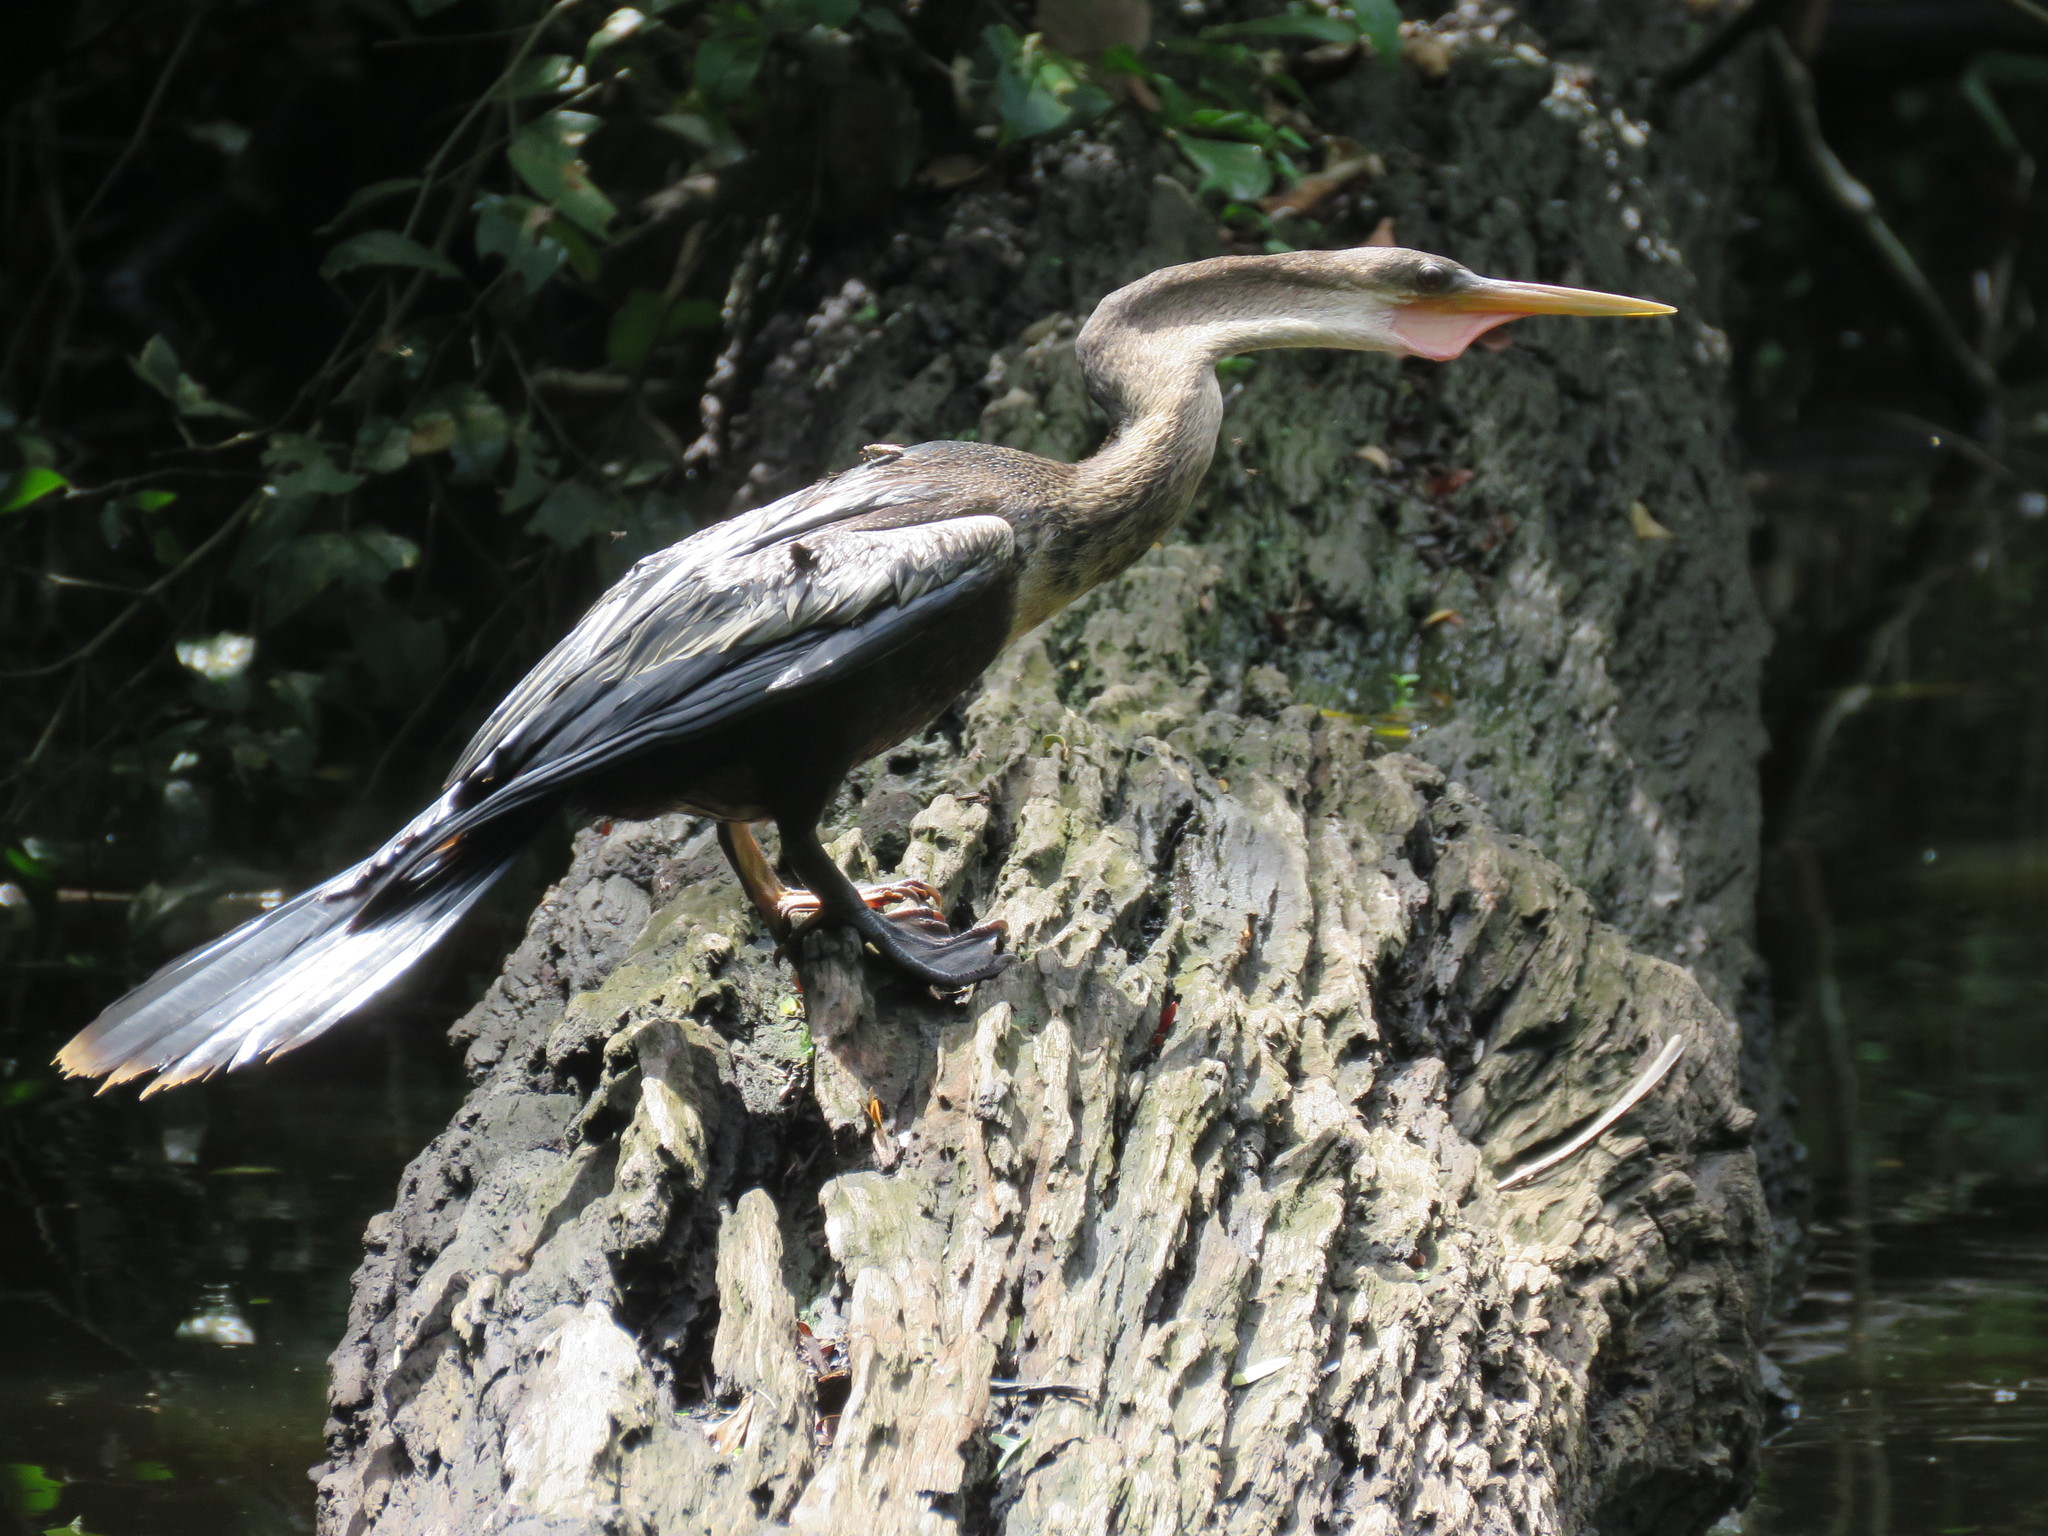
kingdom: Animalia
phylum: Chordata
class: Aves
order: Suliformes
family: Anhingidae
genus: Anhinga
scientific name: Anhinga anhinga
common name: Anhinga
